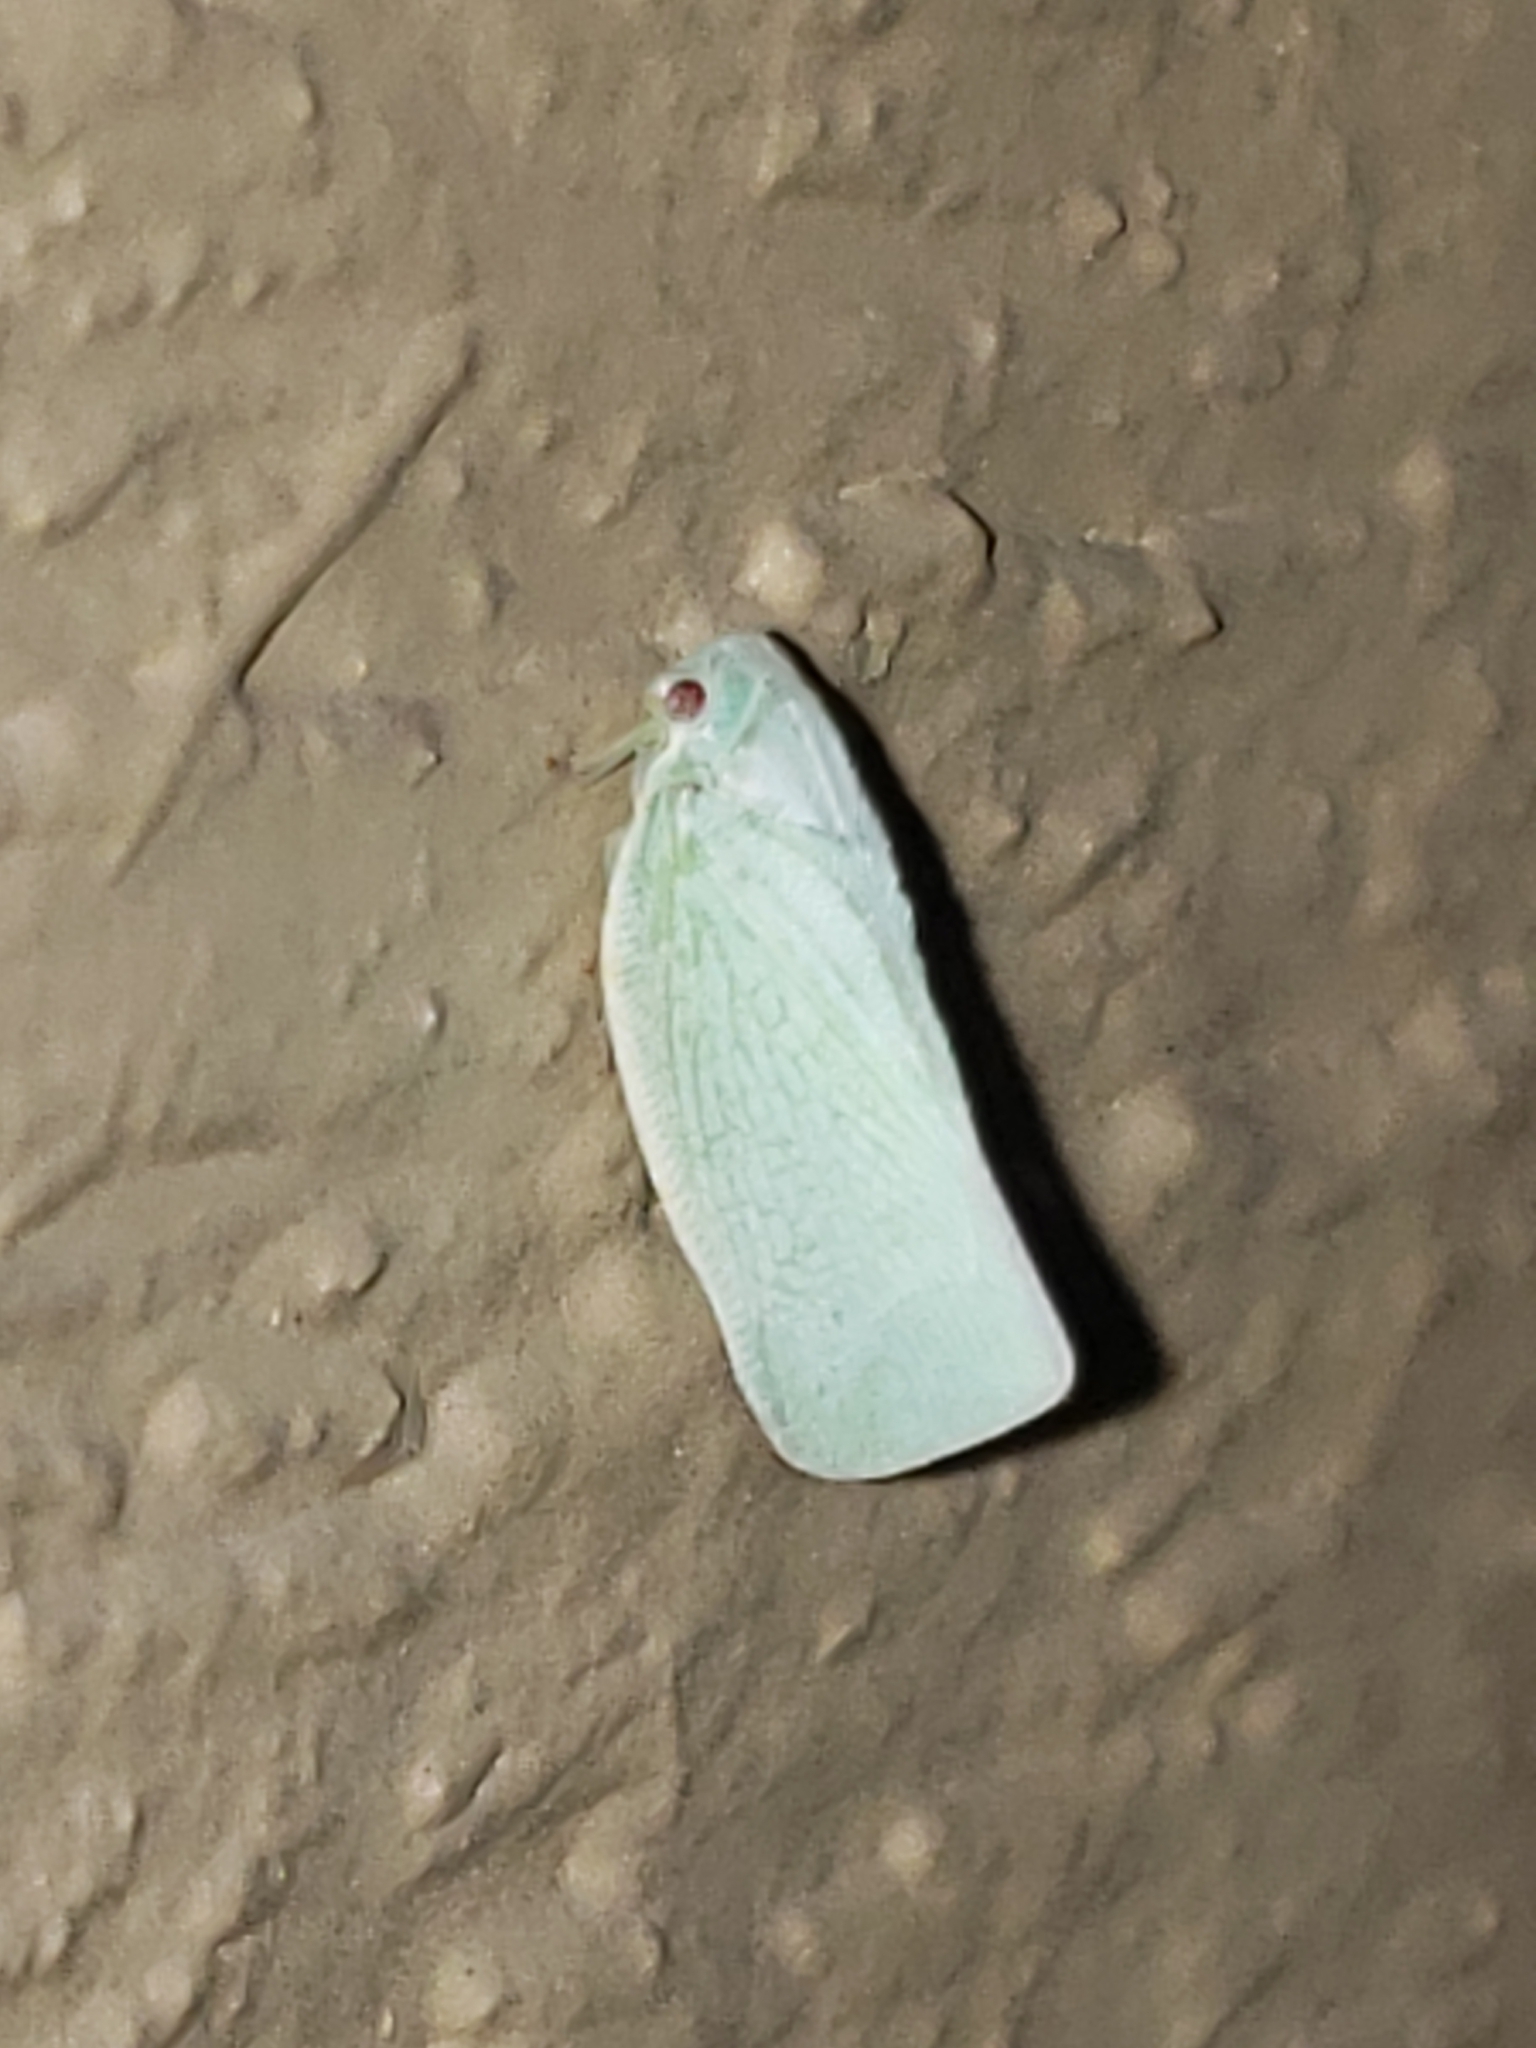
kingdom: Animalia
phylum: Arthropoda
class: Insecta
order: Hemiptera
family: Flatidae
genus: Flatormenis
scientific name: Flatormenis proxima
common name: Northern flatid planthopper
